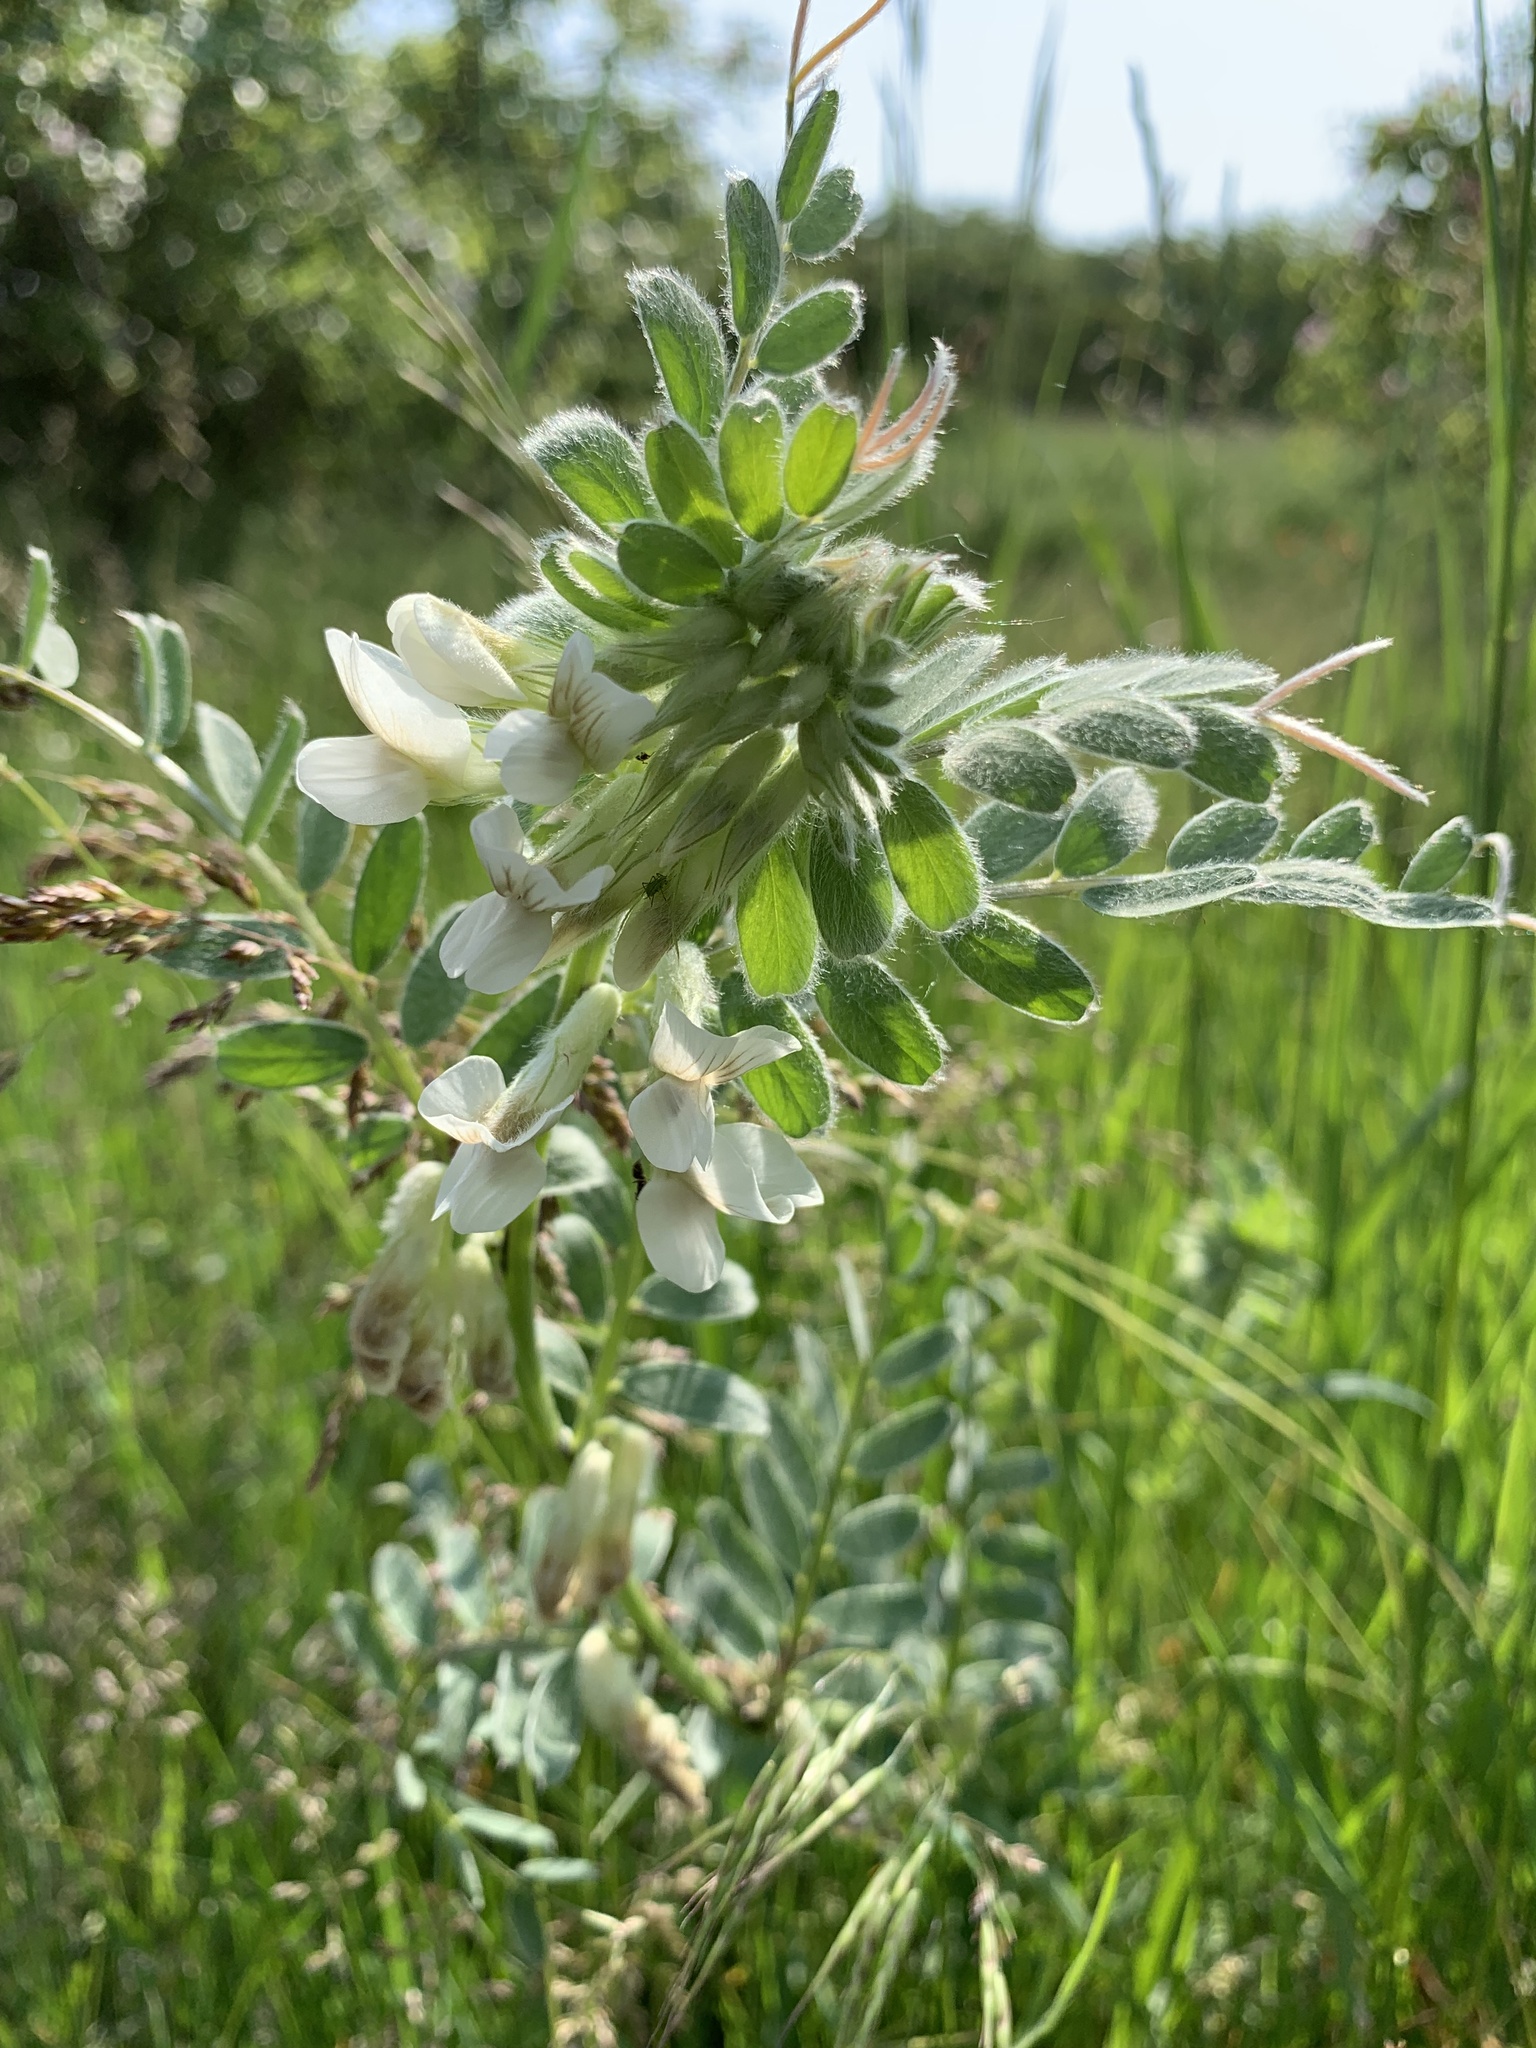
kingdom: Plantae
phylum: Tracheophyta
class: Magnoliopsida
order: Fabales
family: Fabaceae
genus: Vicia
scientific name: Vicia pannonica
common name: Hungarian vetch
